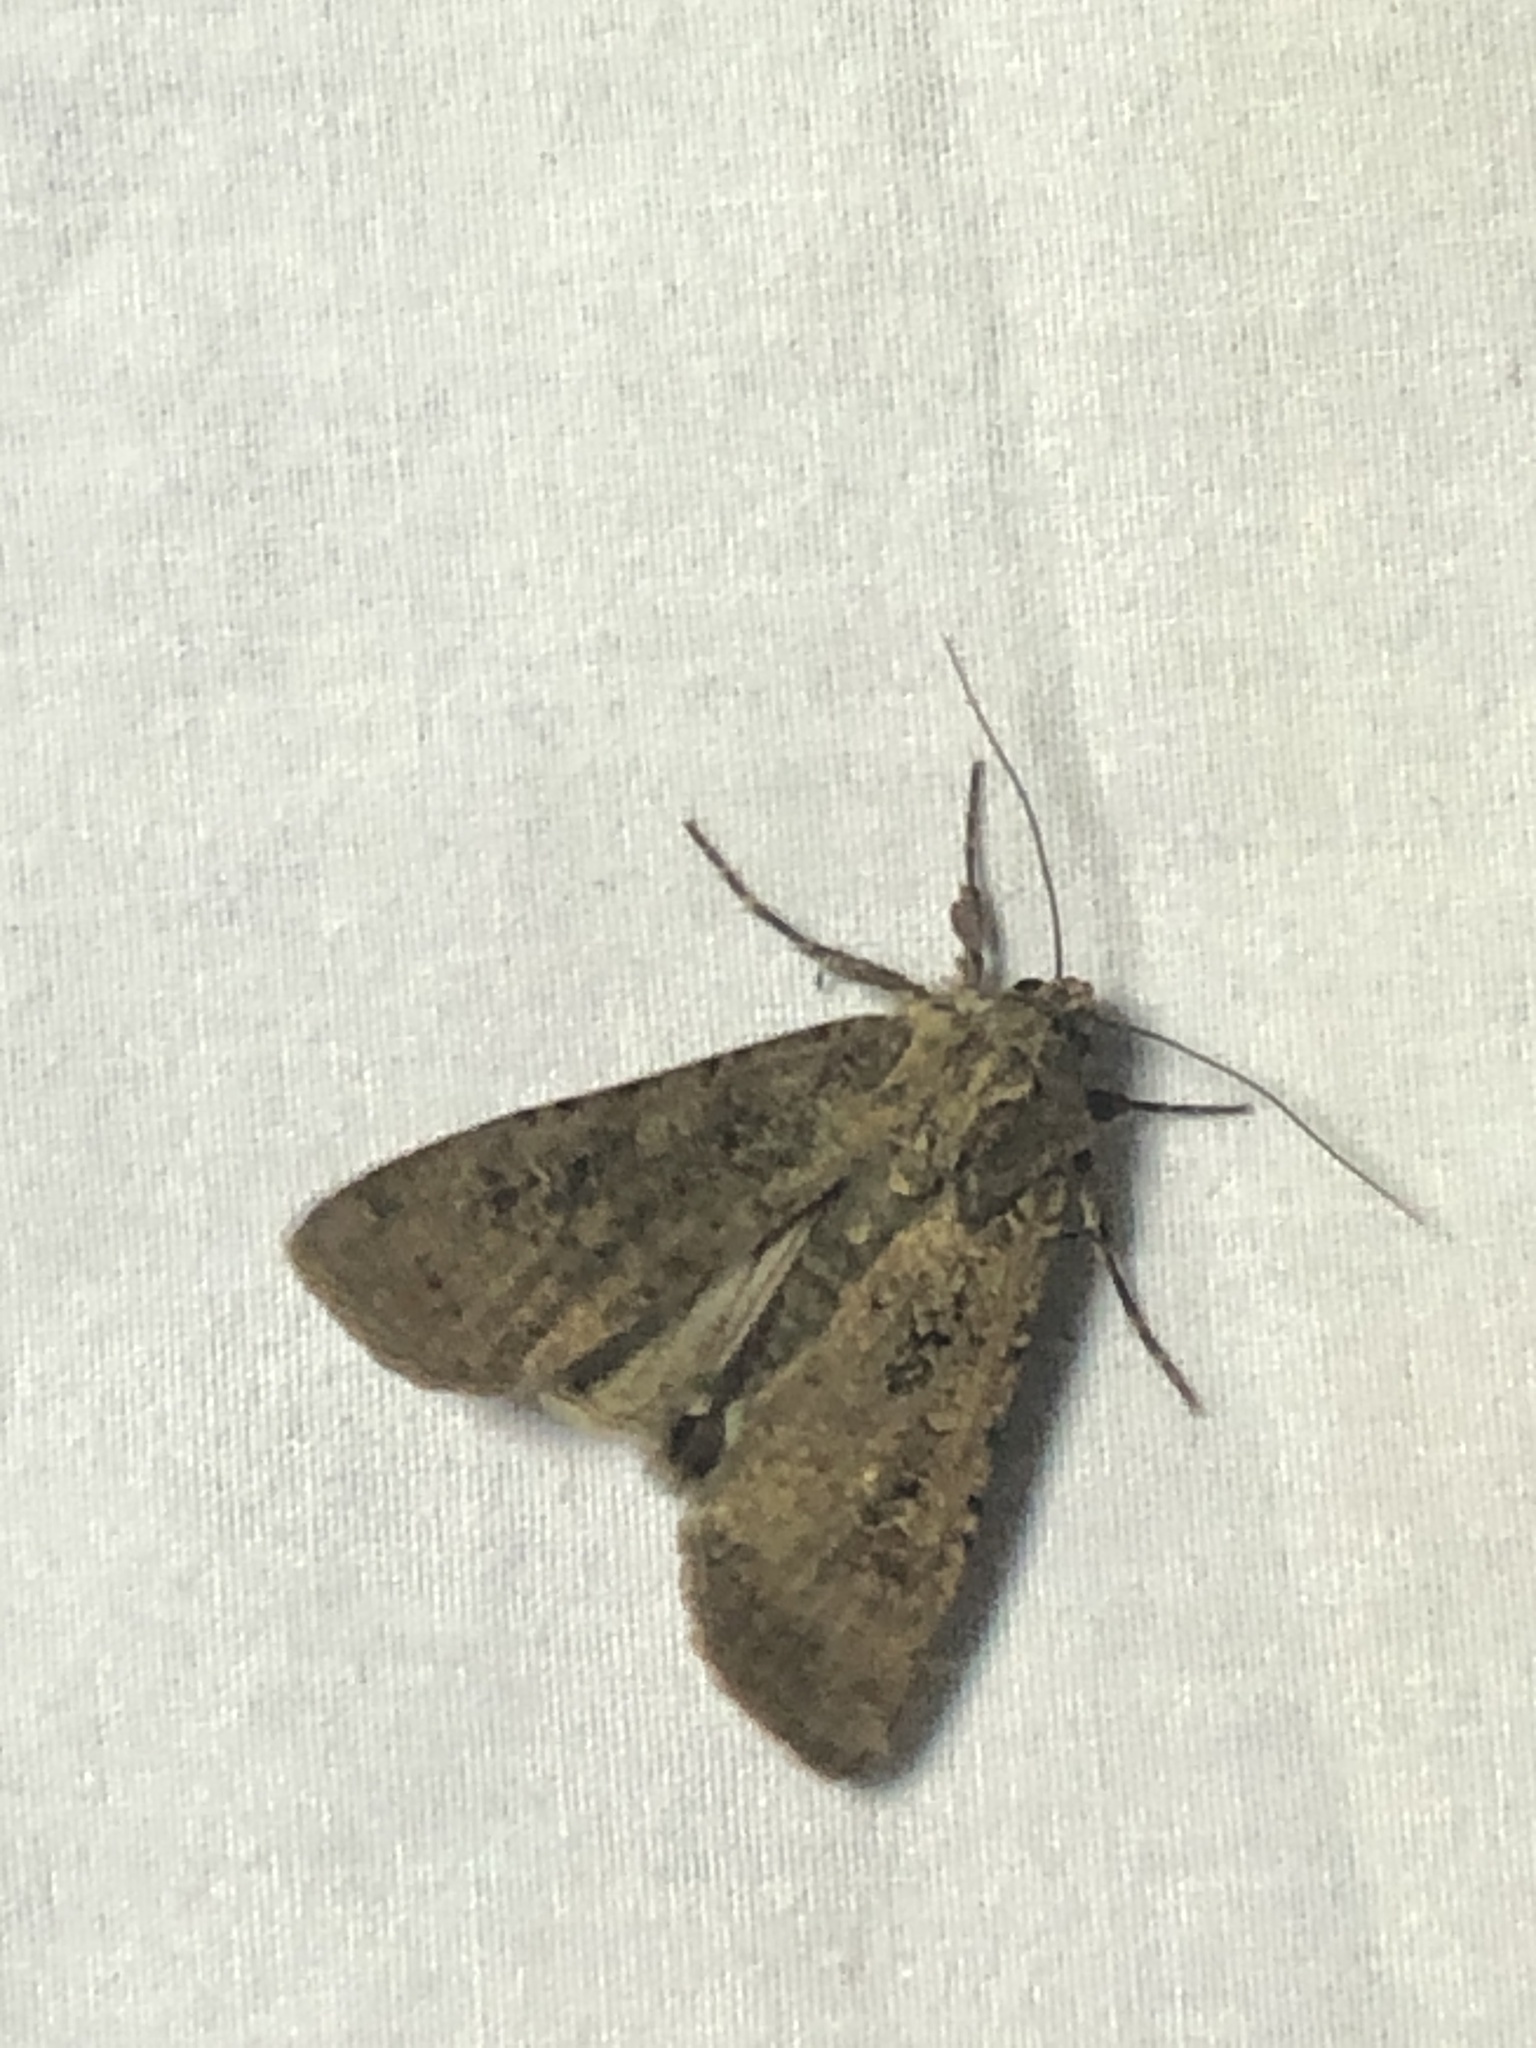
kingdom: Animalia
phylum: Arthropoda
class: Insecta
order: Lepidoptera
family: Noctuidae
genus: Peridroma
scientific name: Peridroma saucia
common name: Pearly underwing
